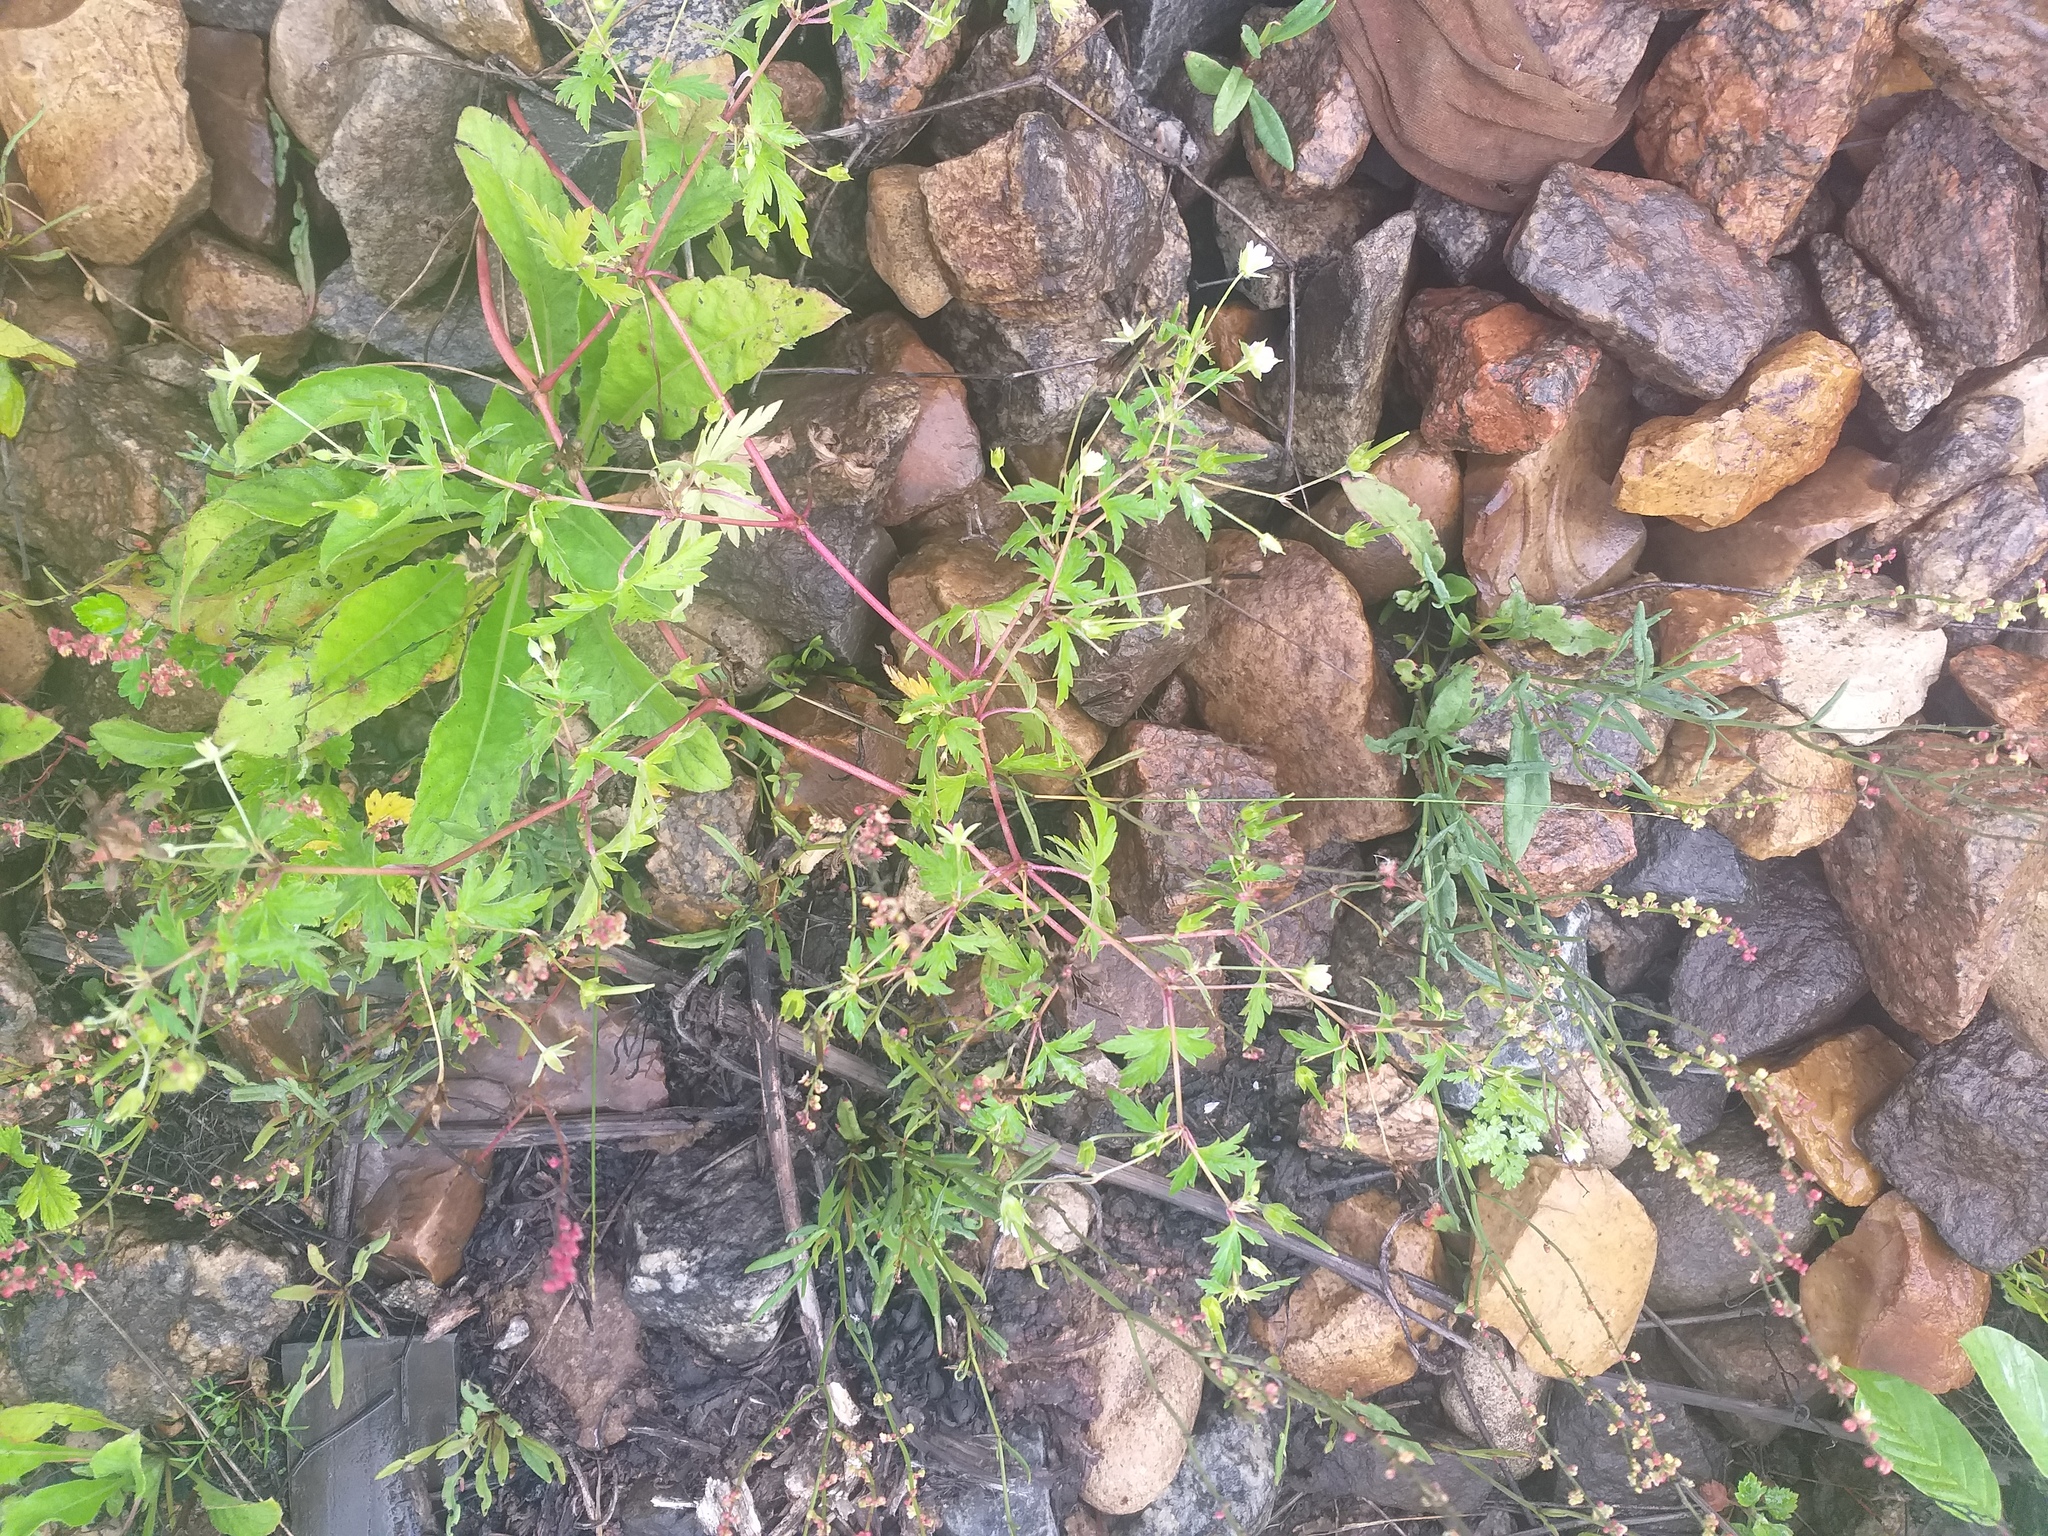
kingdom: Plantae
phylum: Tracheophyta
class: Magnoliopsida
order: Geraniales
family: Geraniaceae
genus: Geranium
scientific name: Geranium sibiricum
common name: Siberian crane's-bill
